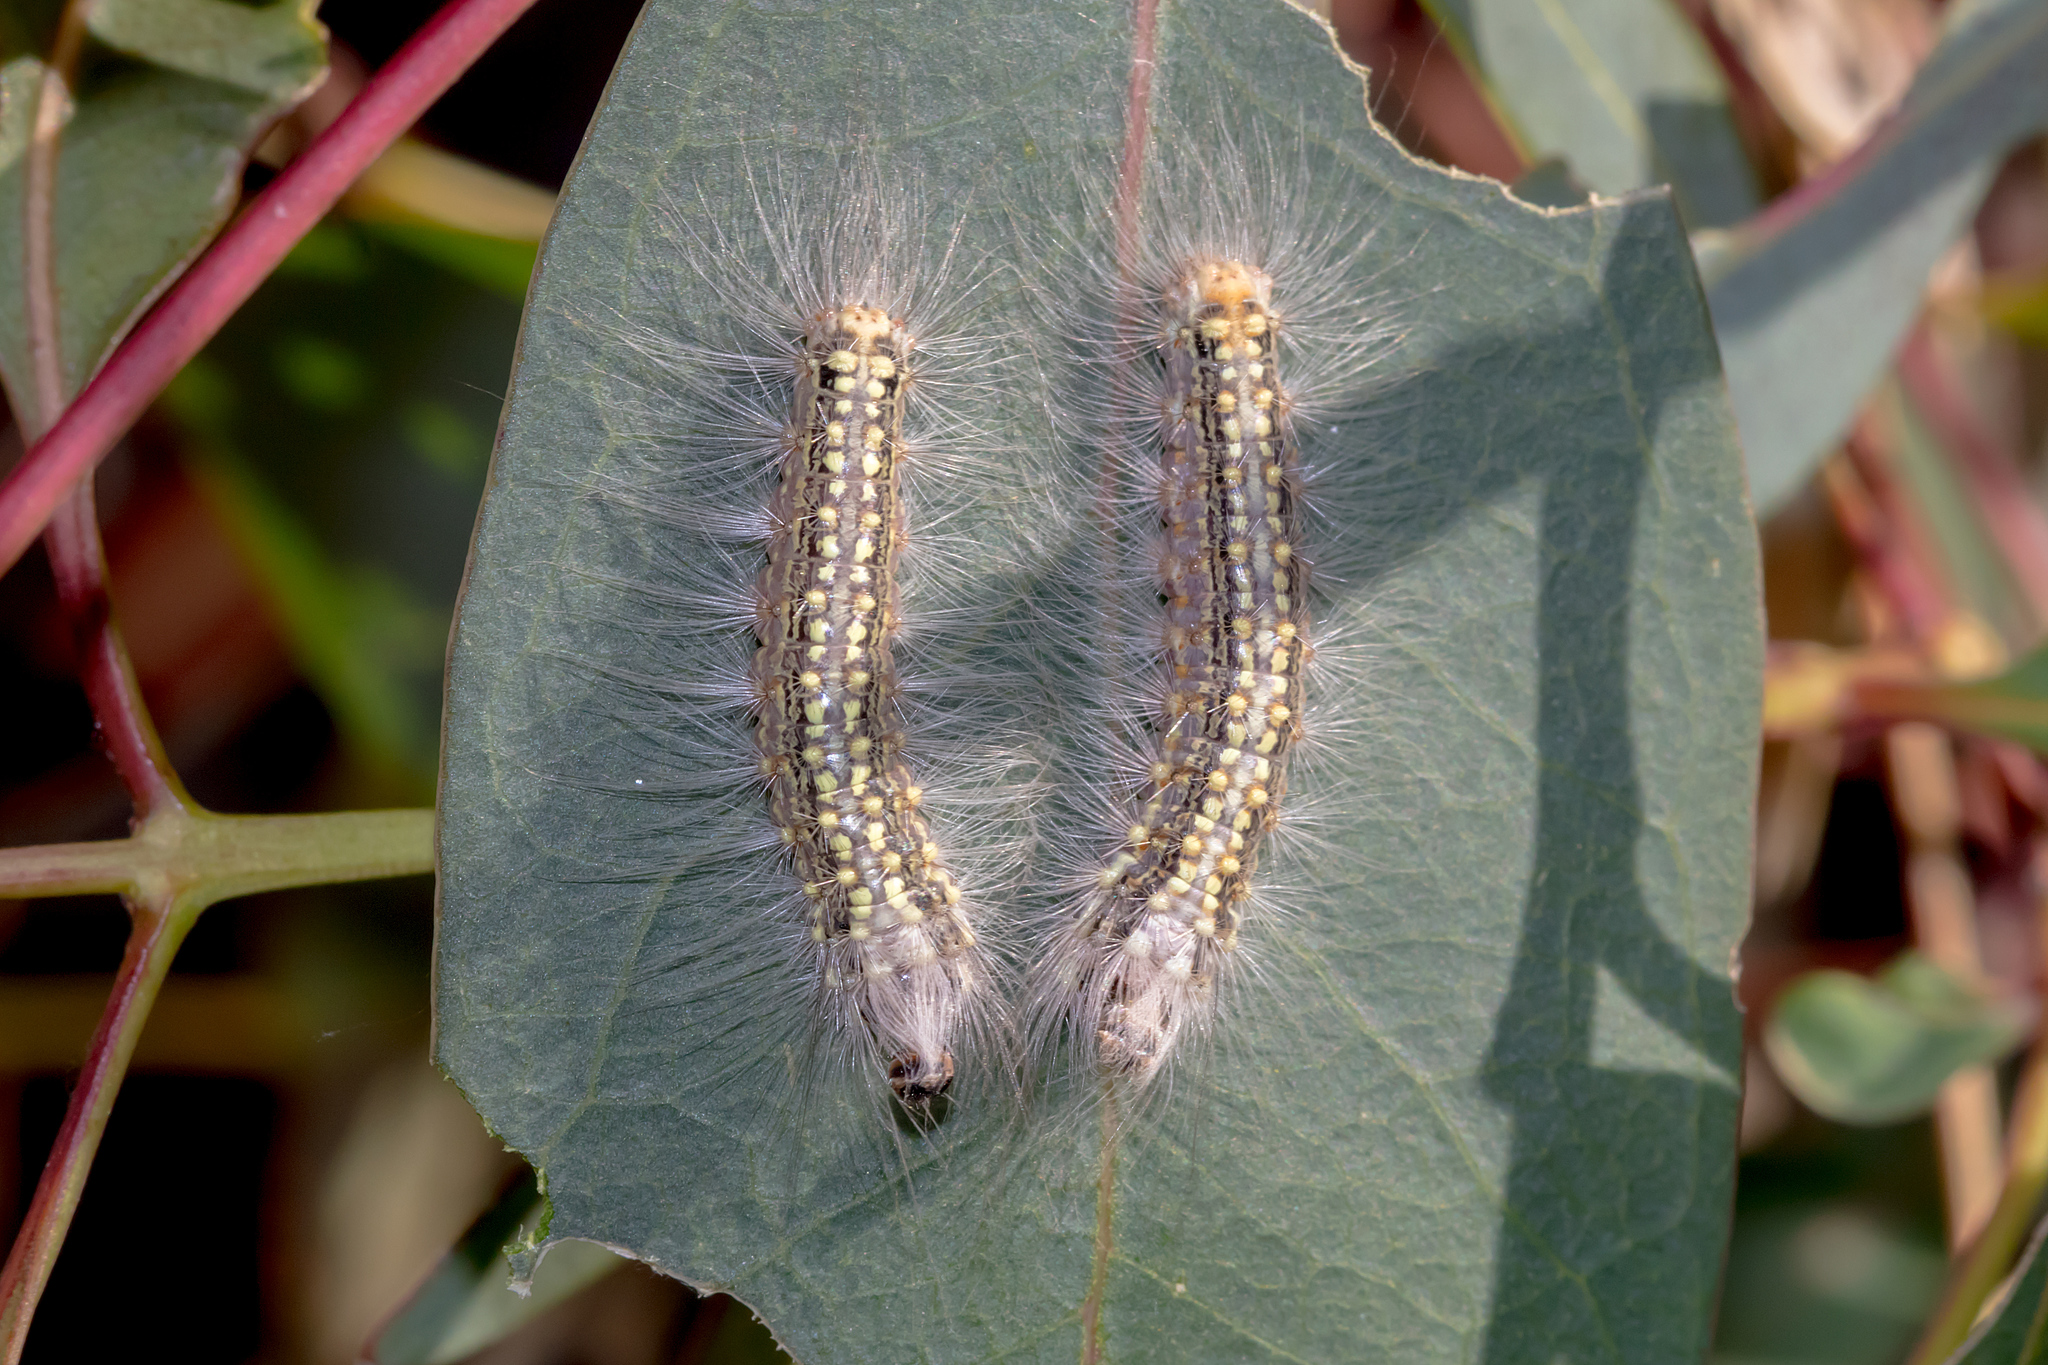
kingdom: Animalia
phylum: Arthropoda
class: Insecta
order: Lepidoptera
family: Nolidae
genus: Uraba
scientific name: Uraba lugens
